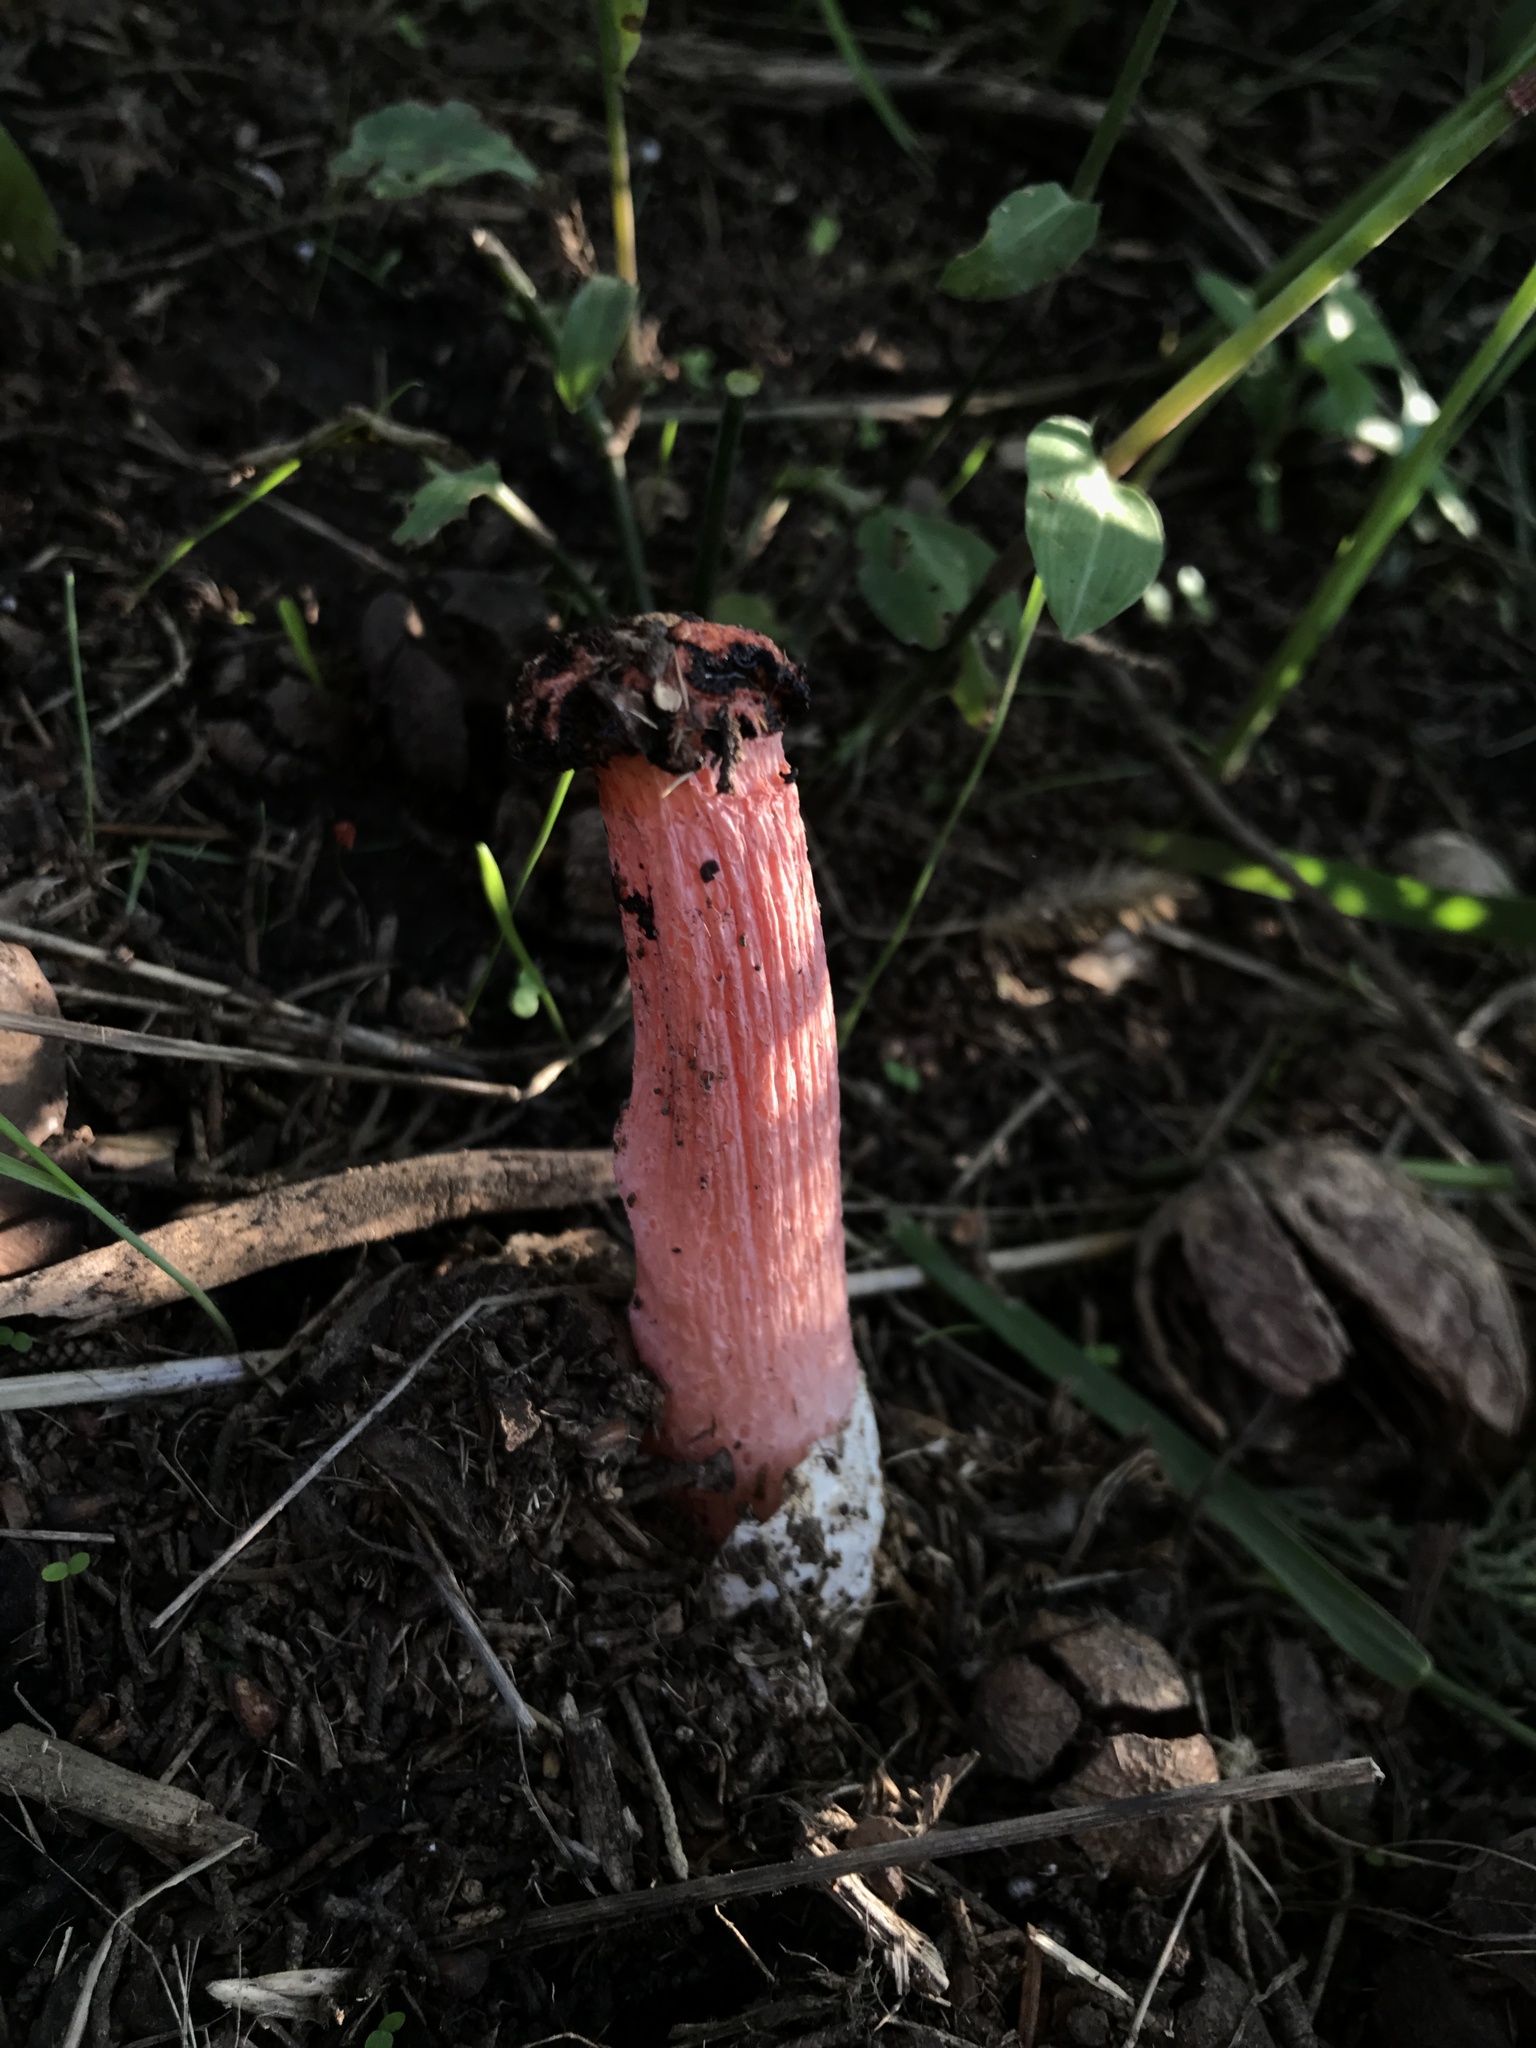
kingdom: Fungi
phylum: Basidiomycota
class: Agaricomycetes
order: Phallales
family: Phallaceae
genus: Lysurus
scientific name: Lysurus periphragmoides
